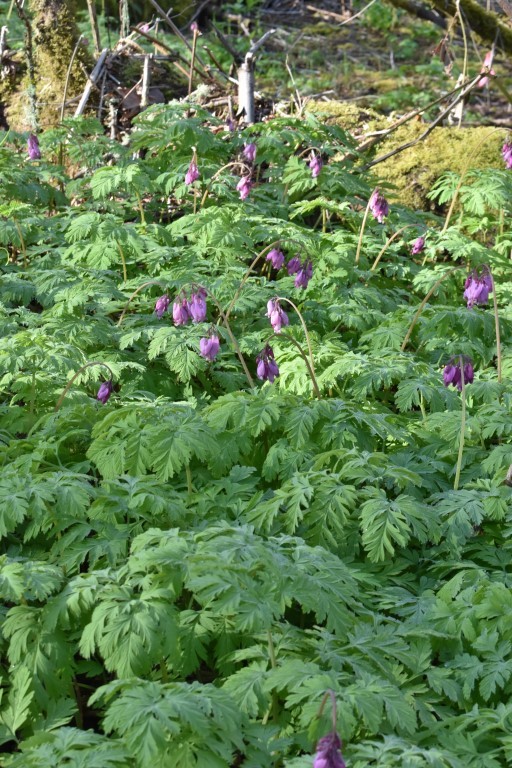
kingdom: Plantae
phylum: Tracheophyta
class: Magnoliopsida
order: Ranunculales
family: Papaveraceae
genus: Dicentra
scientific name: Dicentra formosa
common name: Bleeding-heart
